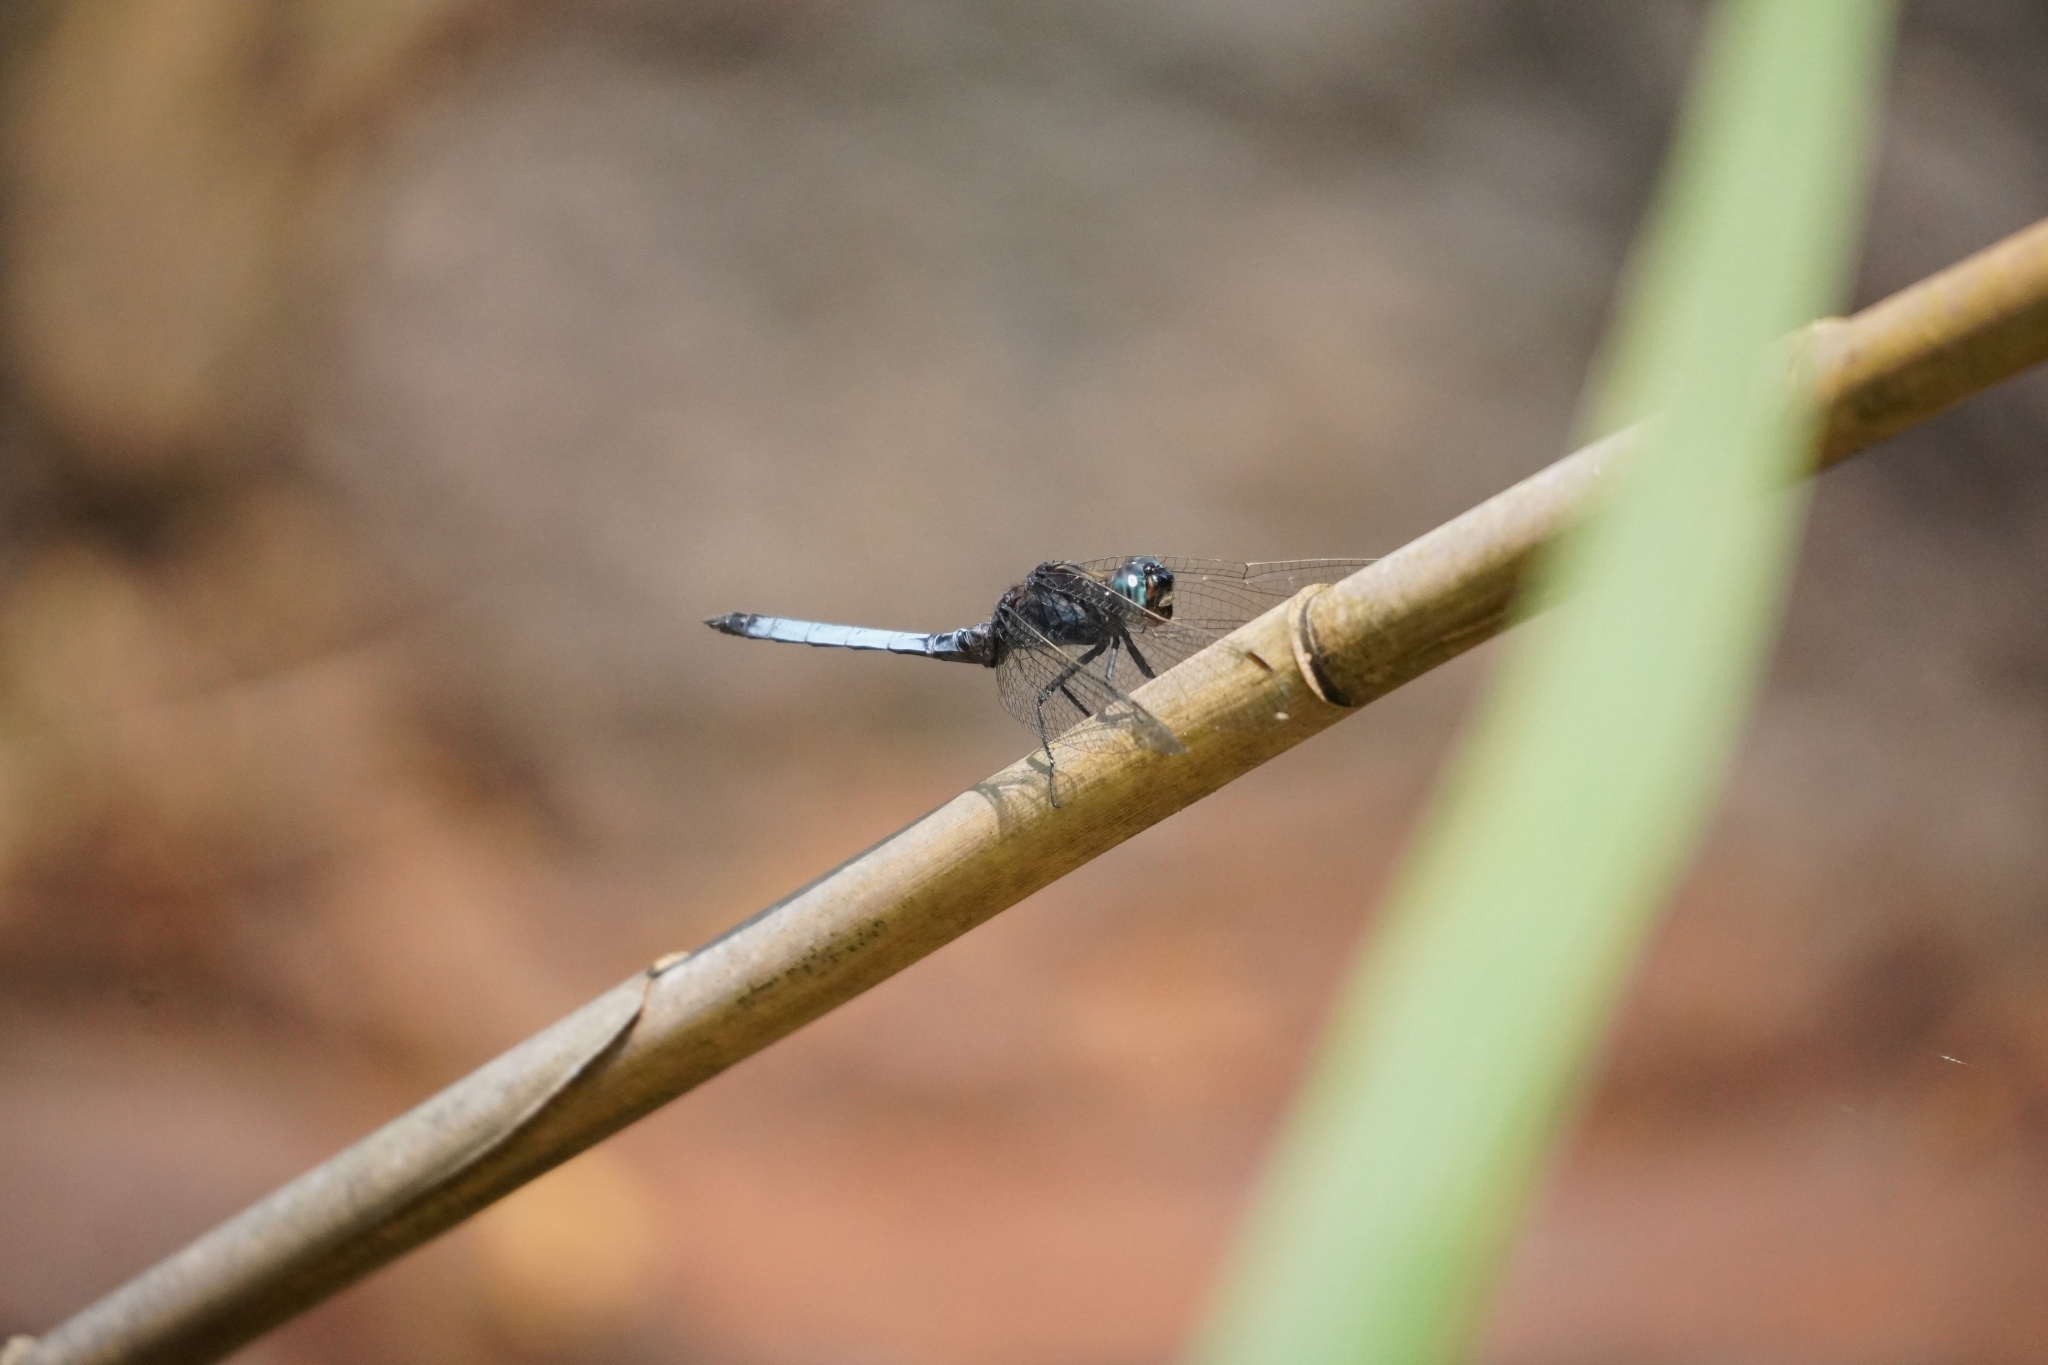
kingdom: Animalia
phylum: Arthropoda
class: Insecta
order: Odonata
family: Libellulidae
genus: Orthetrum
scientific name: Orthetrum glaucum
